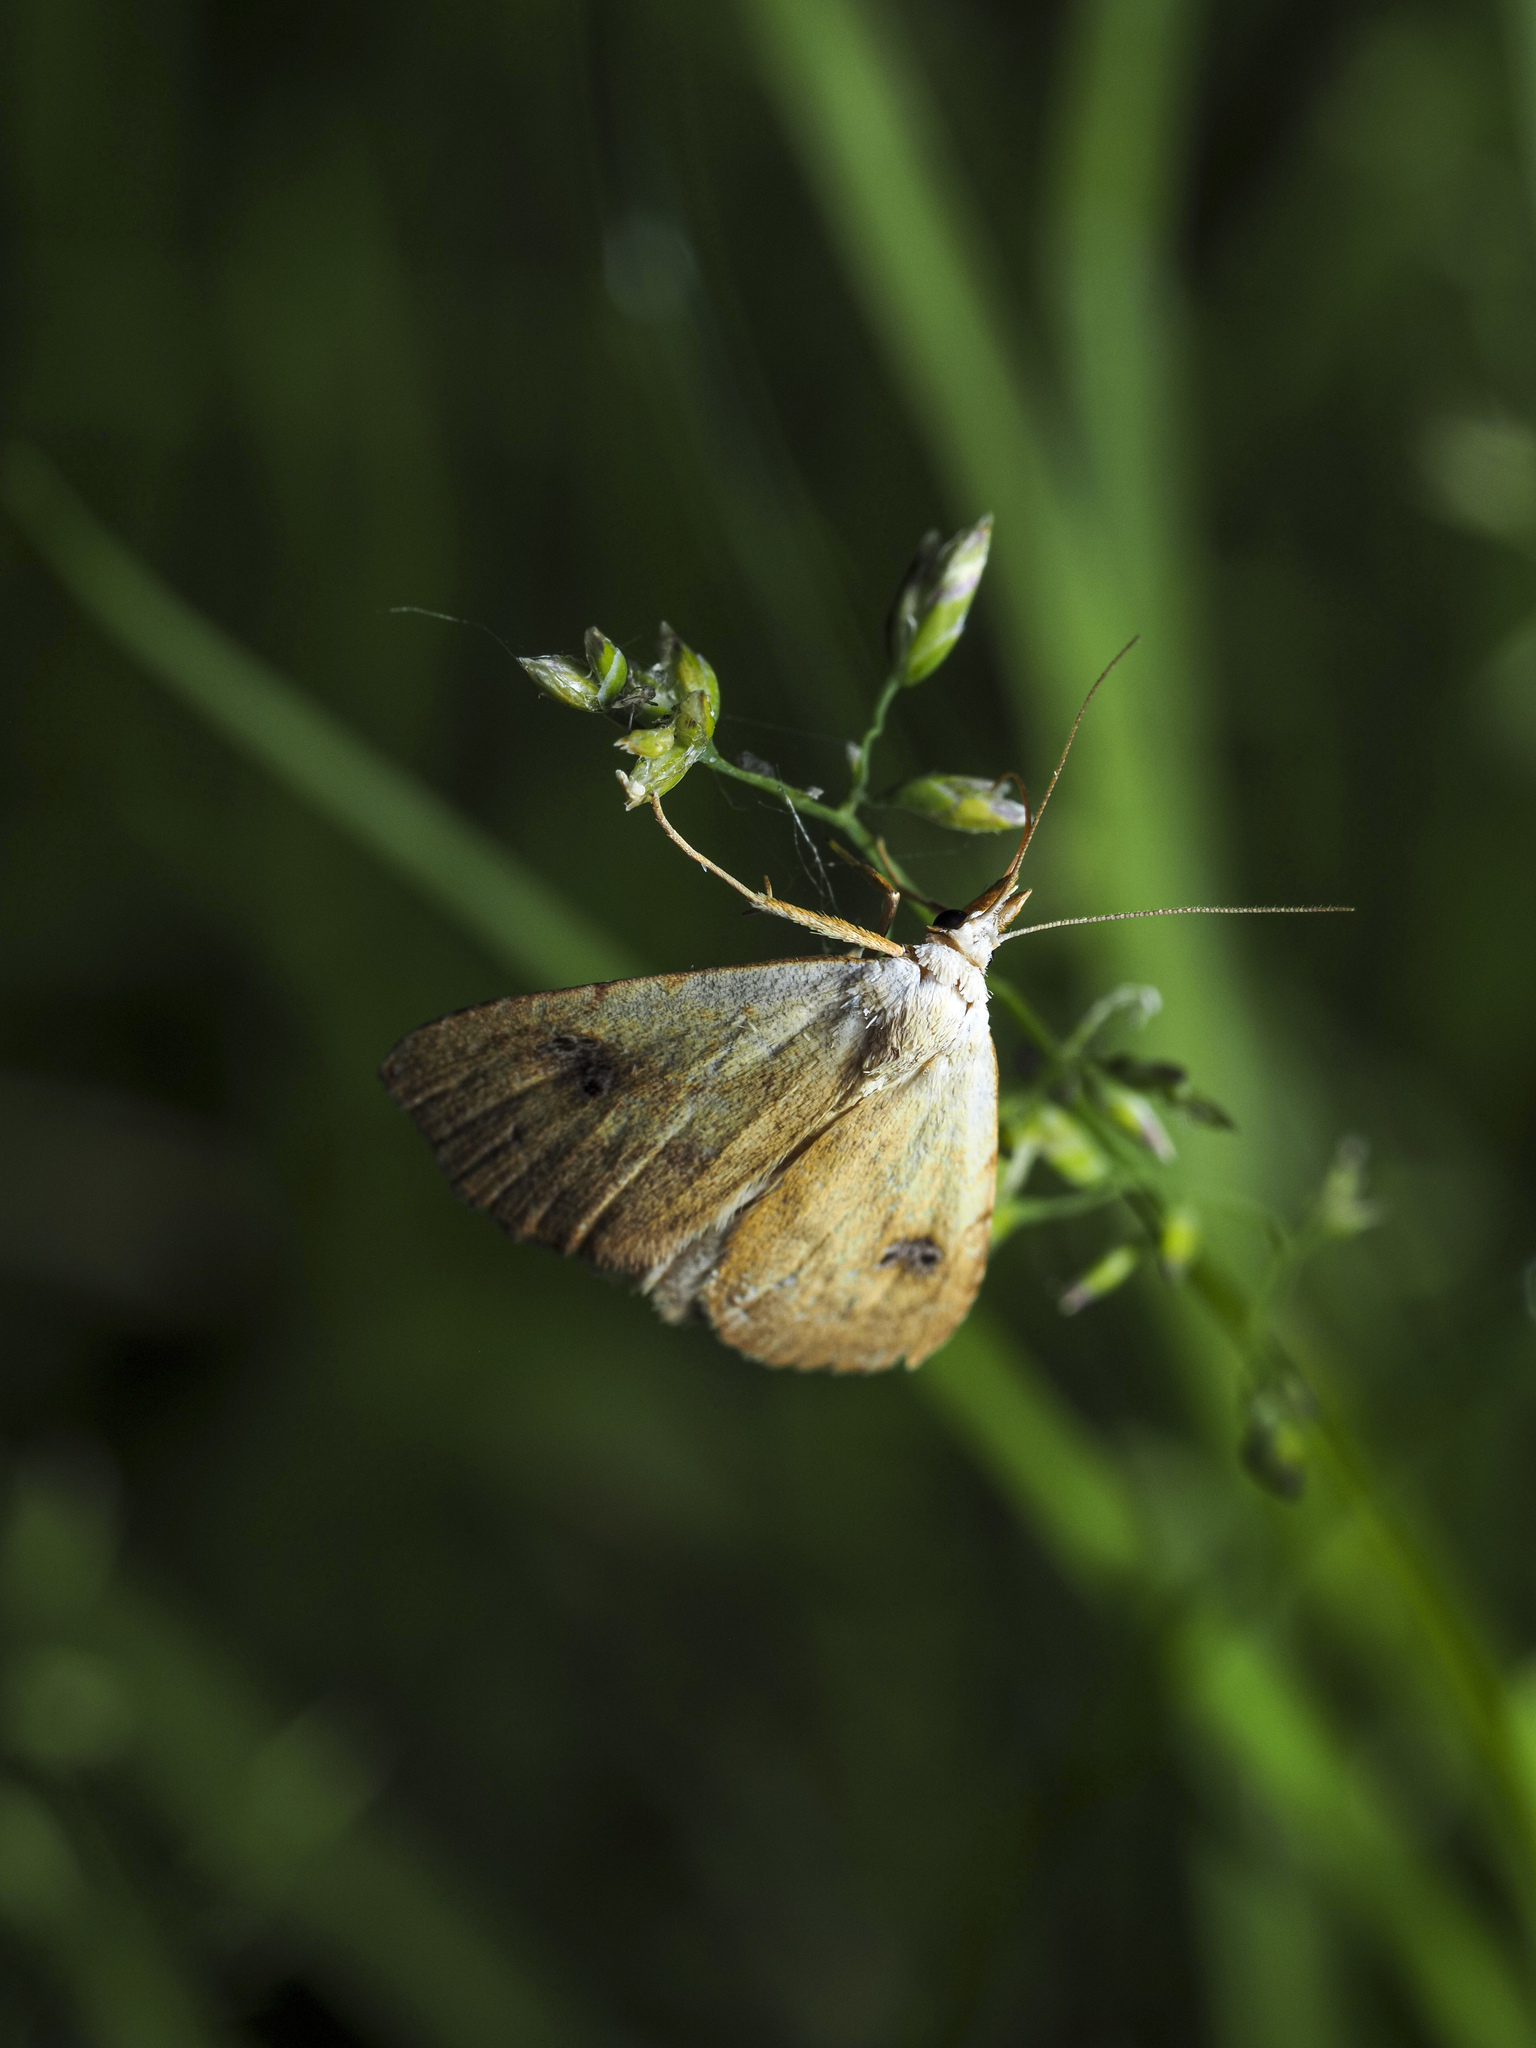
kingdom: Animalia
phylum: Arthropoda
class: Insecta
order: Lepidoptera
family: Erebidae
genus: Rivula
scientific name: Rivula sericealis
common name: Straw dot
